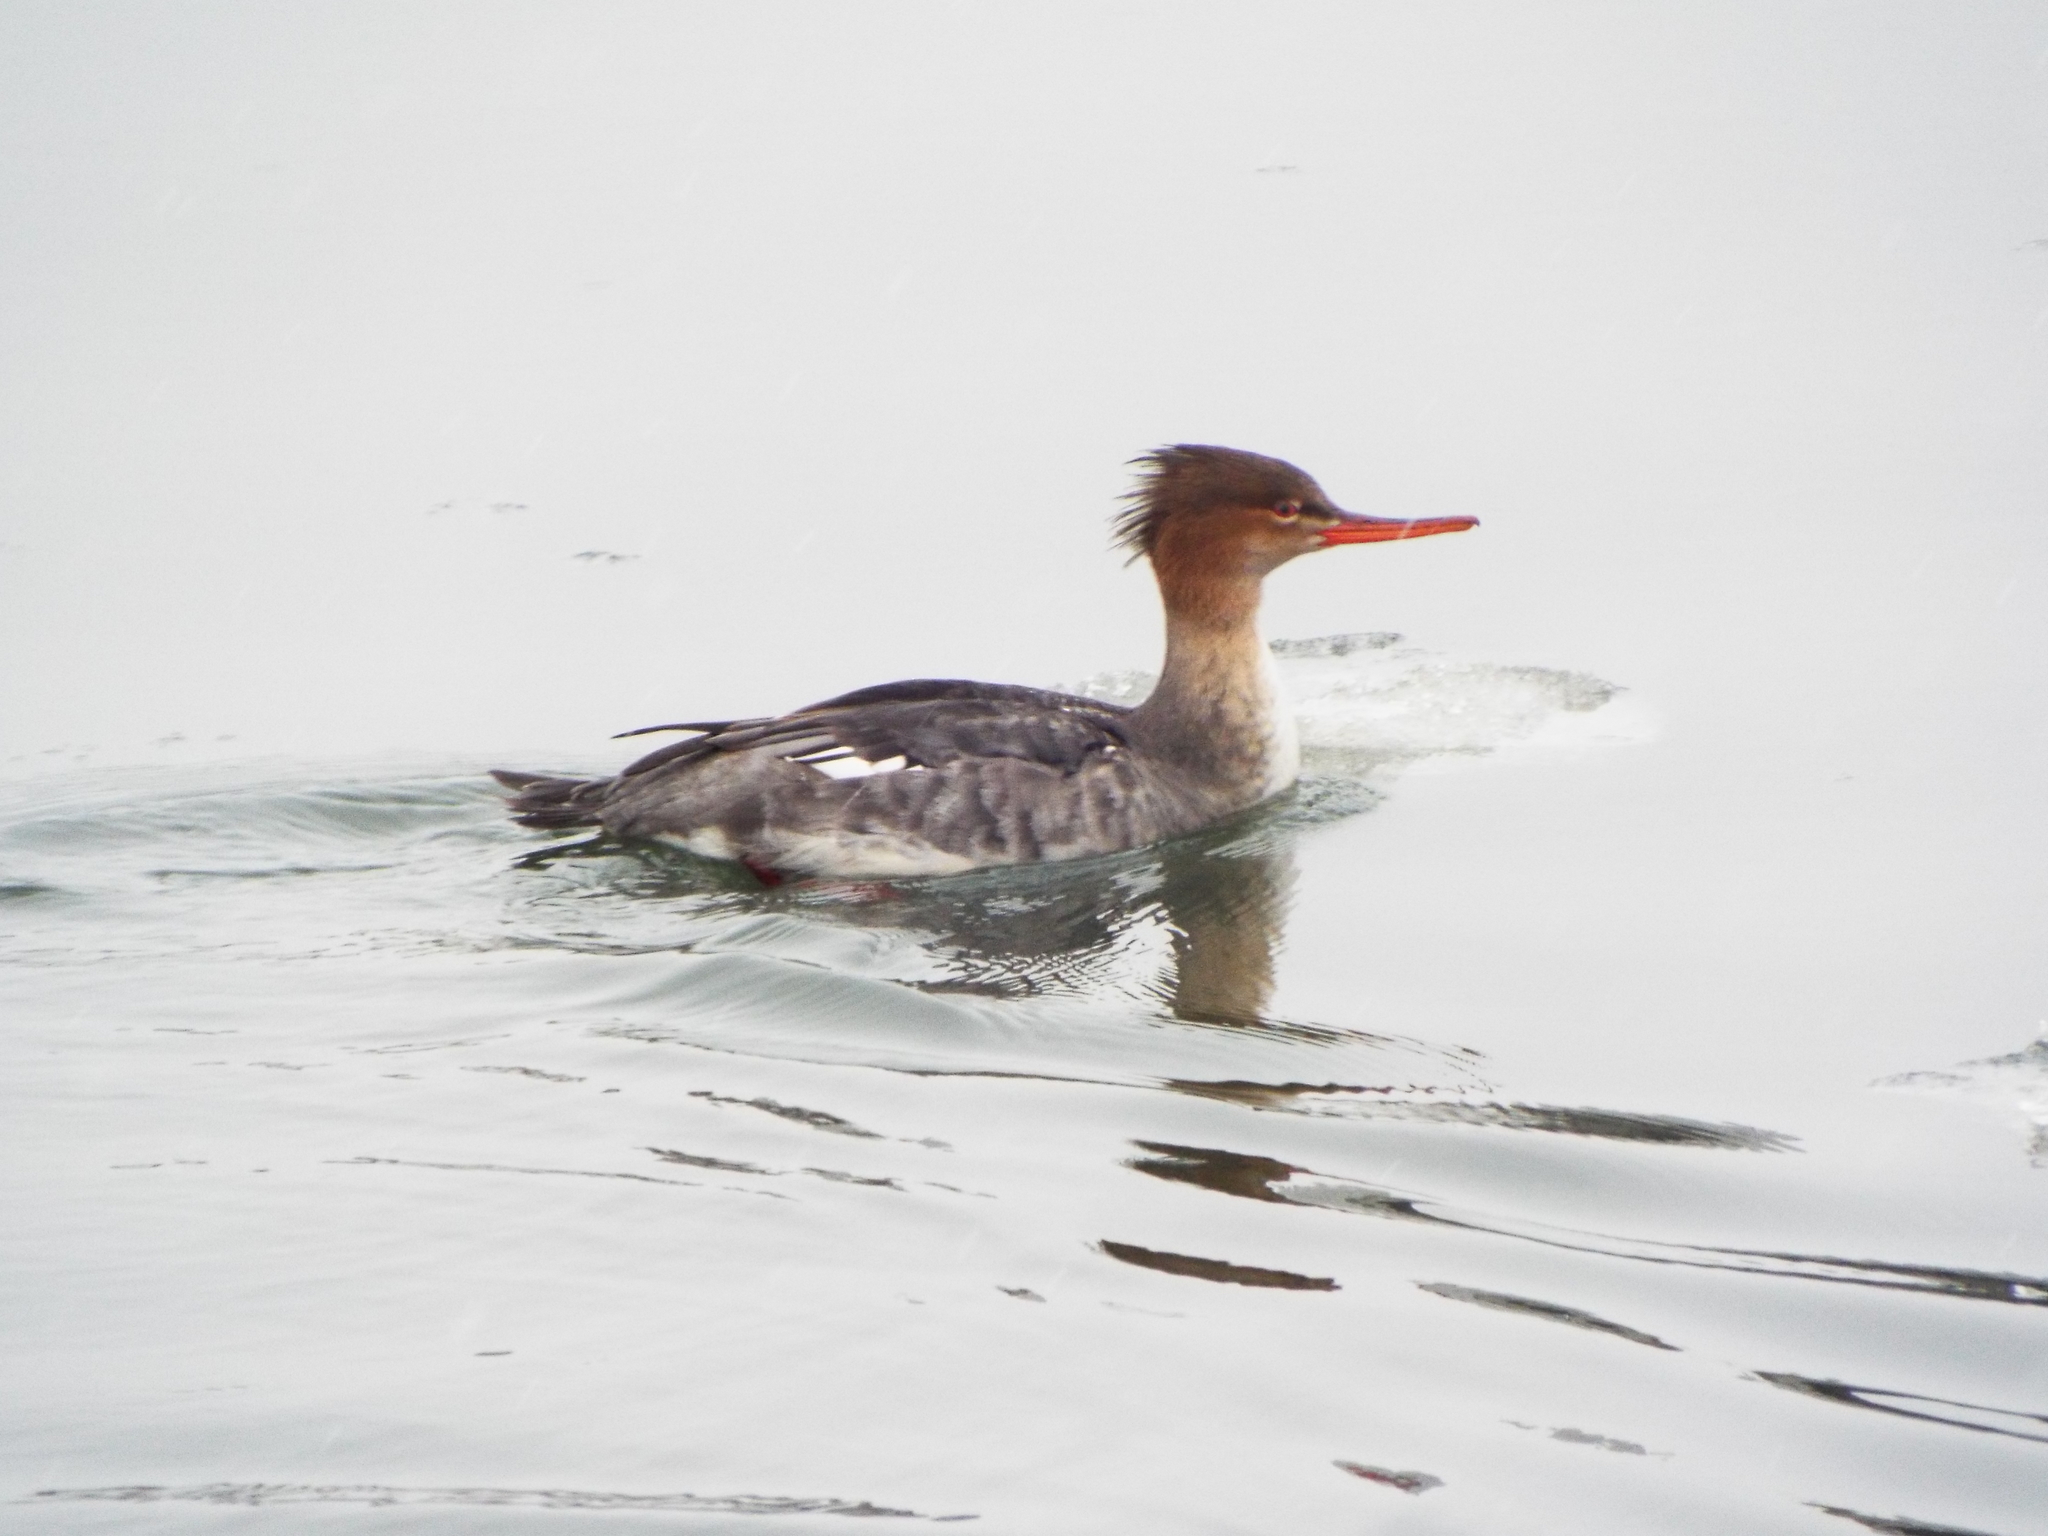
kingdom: Animalia
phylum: Chordata
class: Aves
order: Anseriformes
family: Anatidae
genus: Mergus
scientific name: Mergus serrator
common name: Red-breasted merganser
